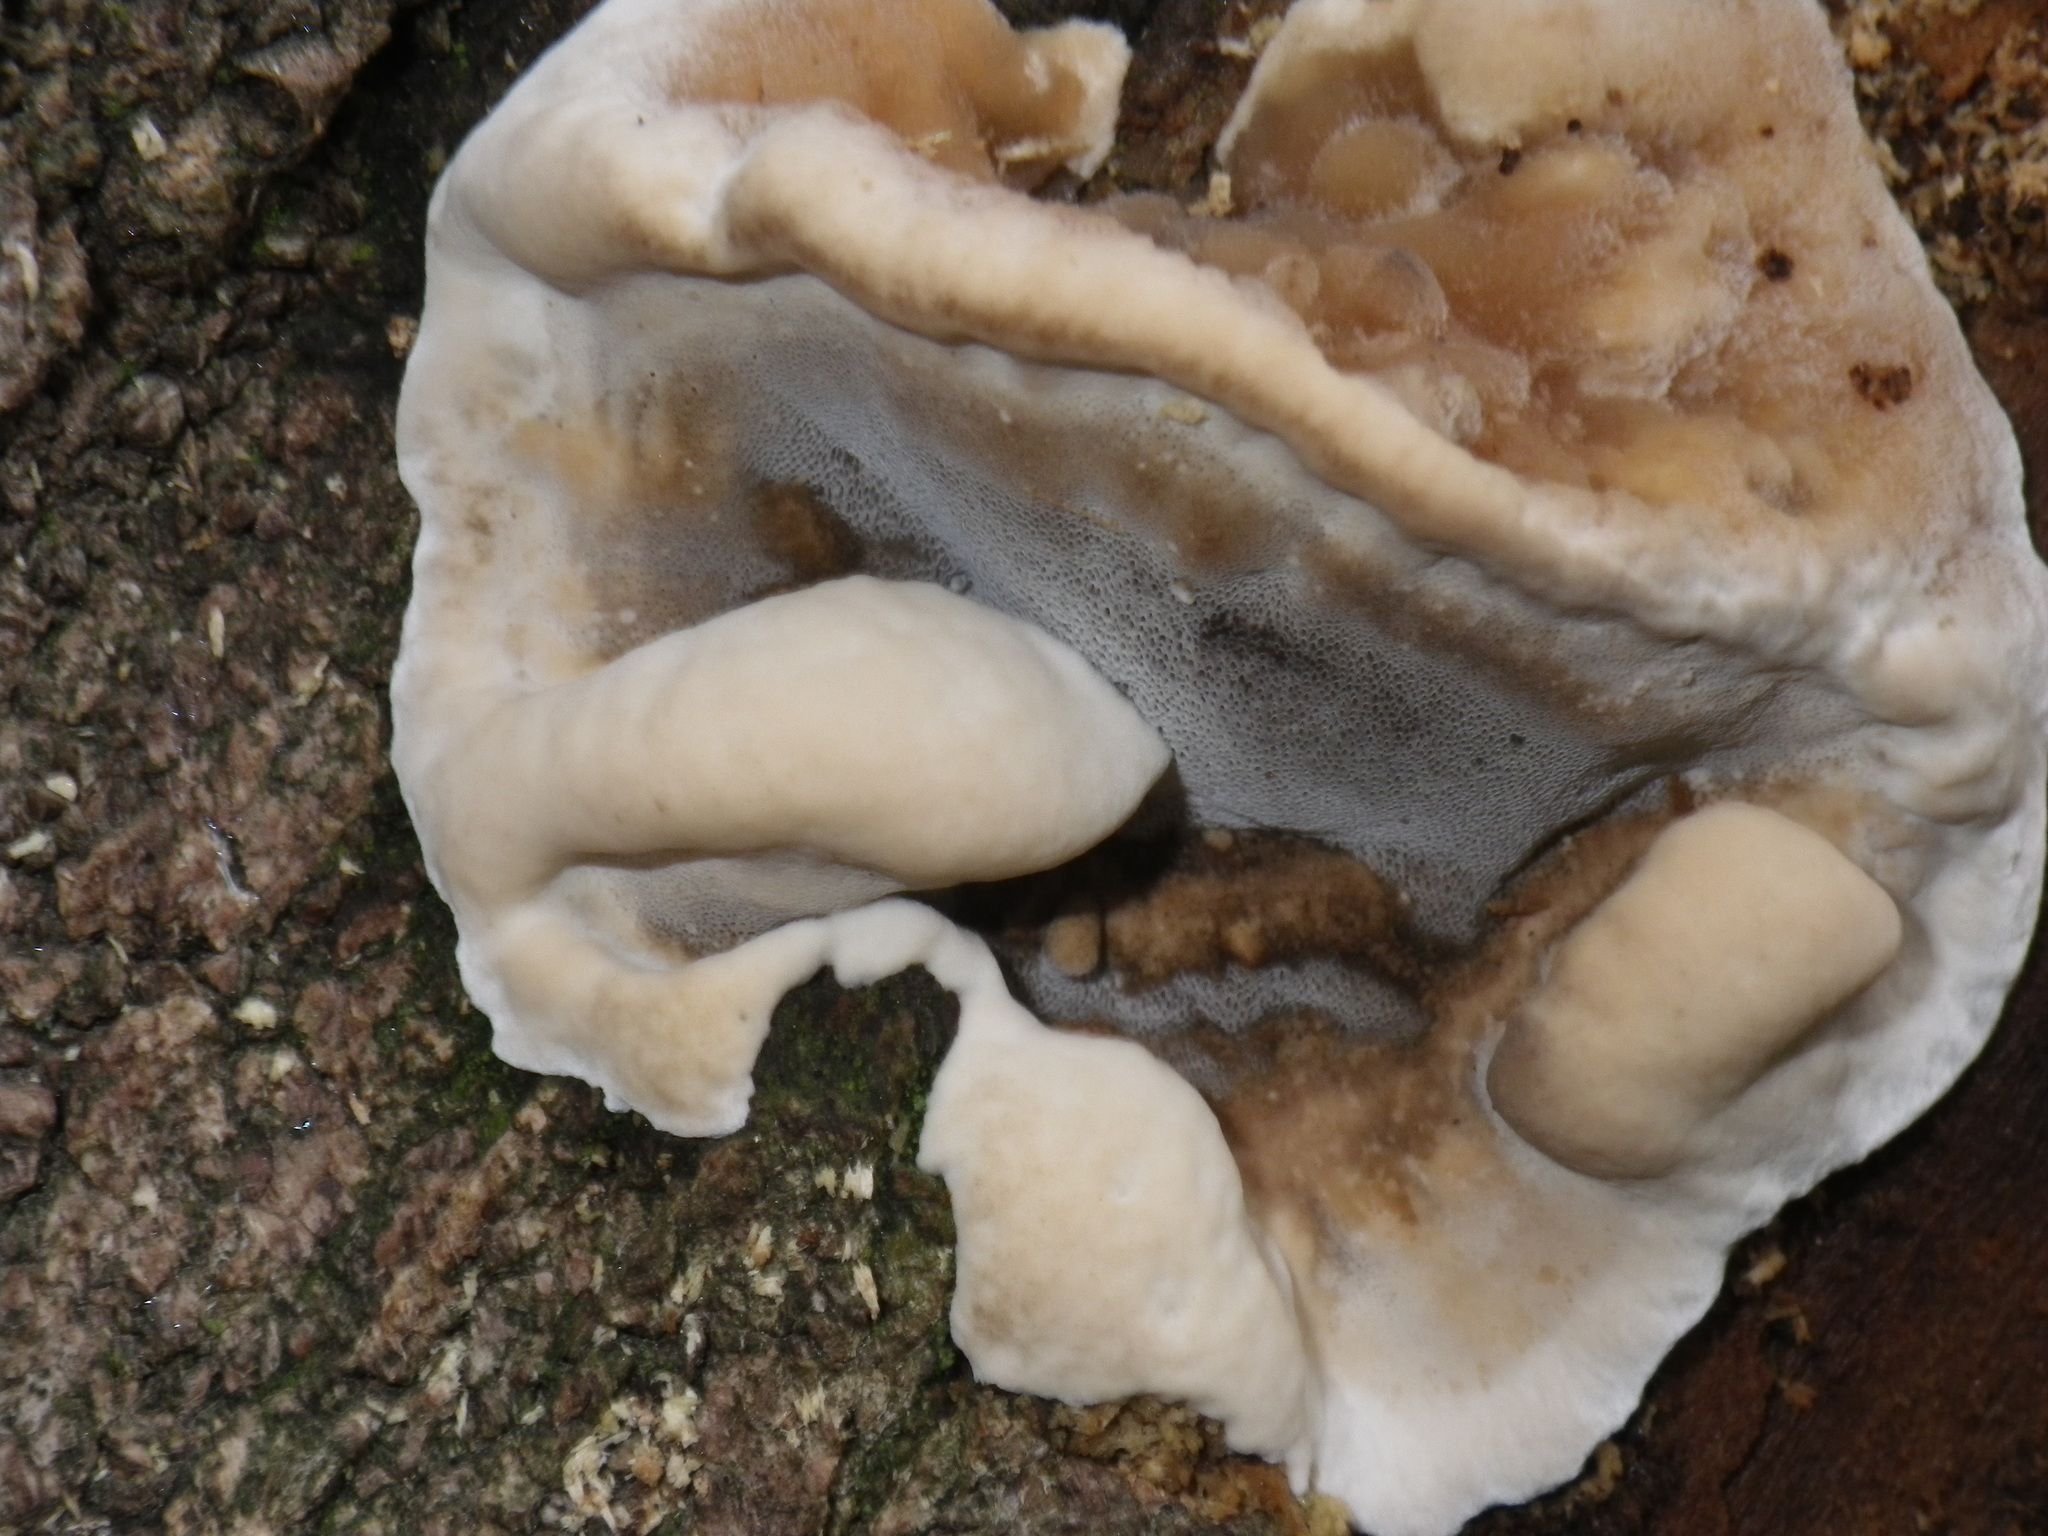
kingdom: Fungi
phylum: Basidiomycota
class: Agaricomycetes
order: Polyporales
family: Phanerochaetaceae
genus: Bjerkandera
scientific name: Bjerkandera adusta
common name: Smoky bracket
